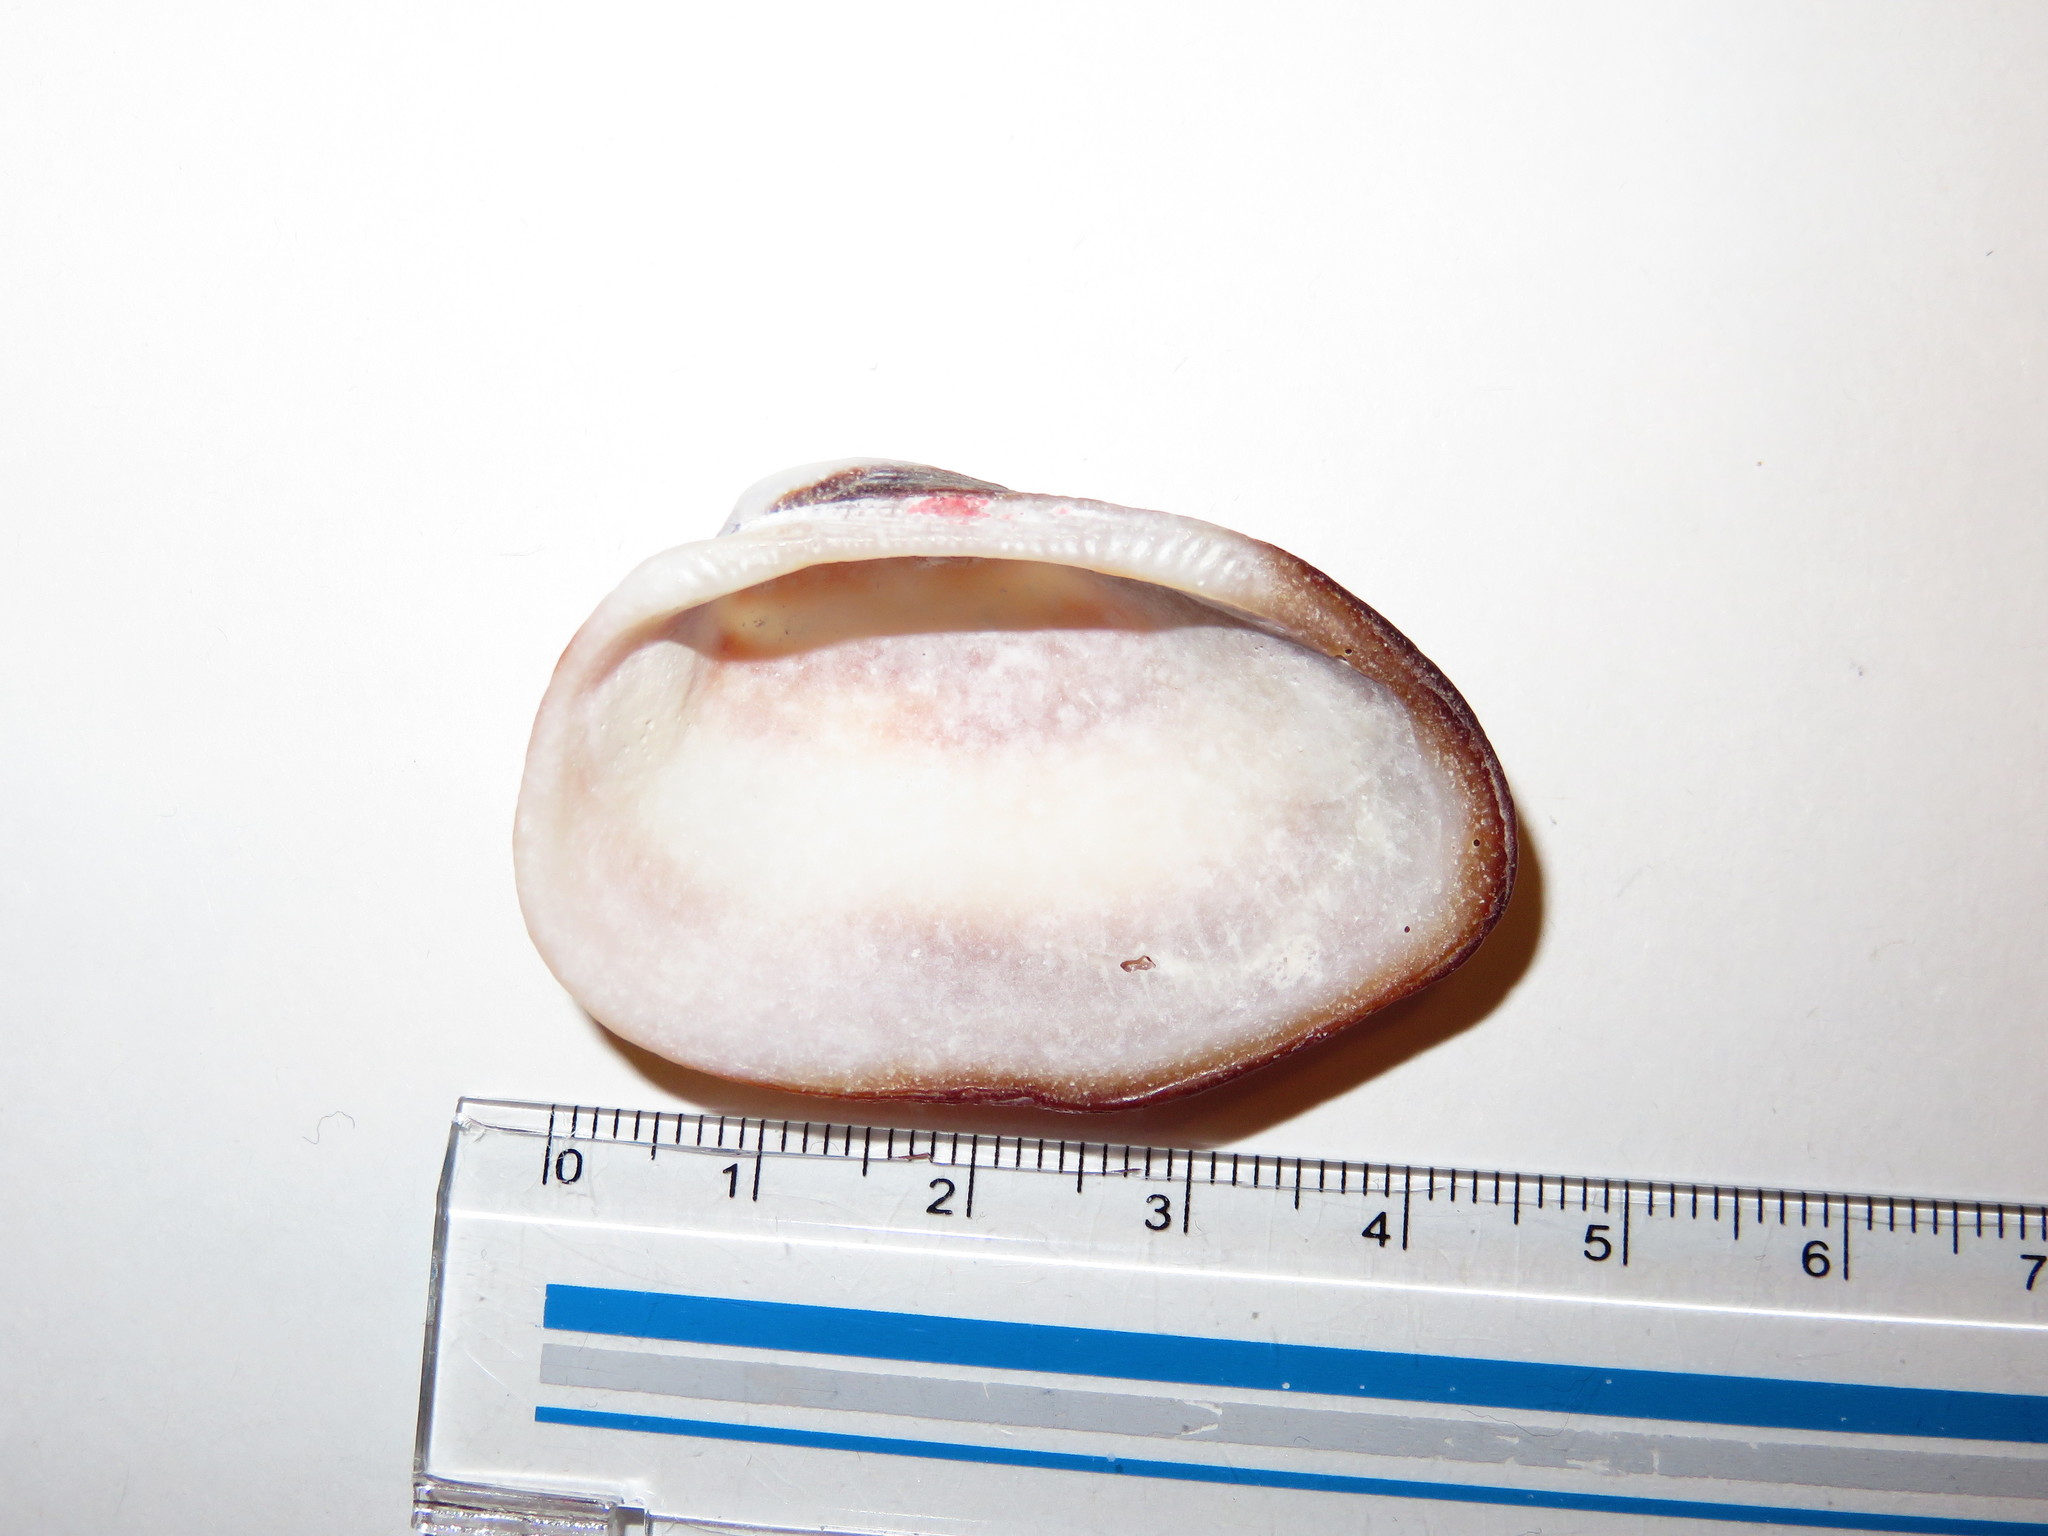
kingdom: Animalia
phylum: Mollusca
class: Bivalvia
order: Arcida
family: Arcidae
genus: Barbatia
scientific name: Barbatia amygdalumtostum
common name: Burnt-almond ark
